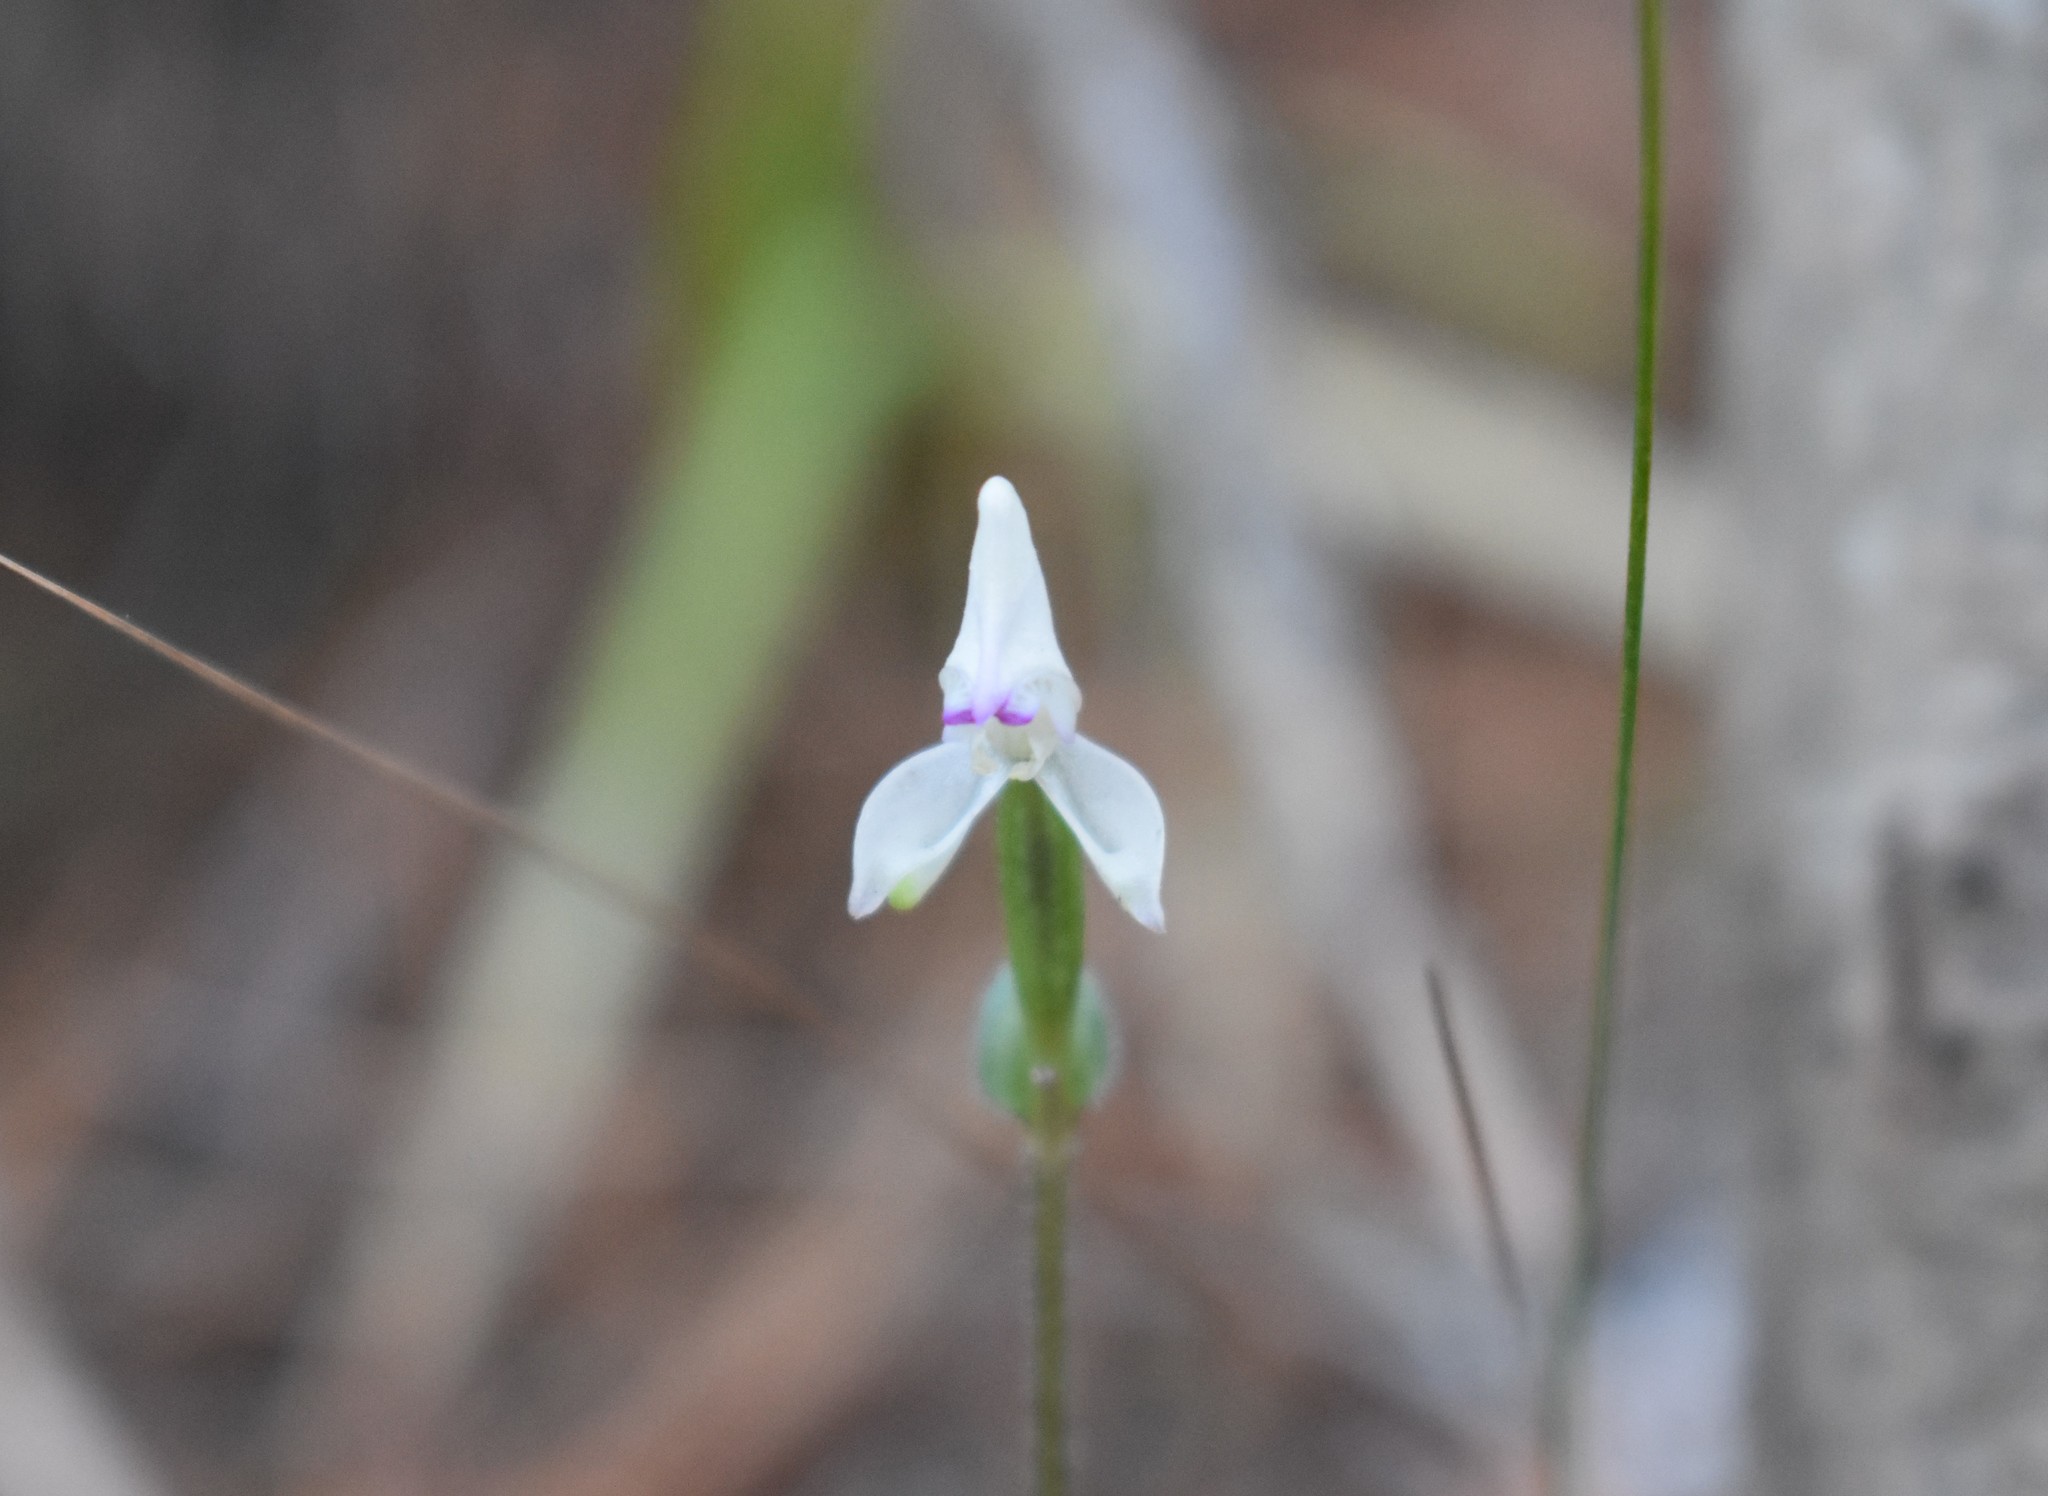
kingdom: Plantae
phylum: Tracheophyta
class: Liliopsida
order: Asparagales
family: Orchidaceae
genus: Disperis
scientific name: Disperis macowanii
